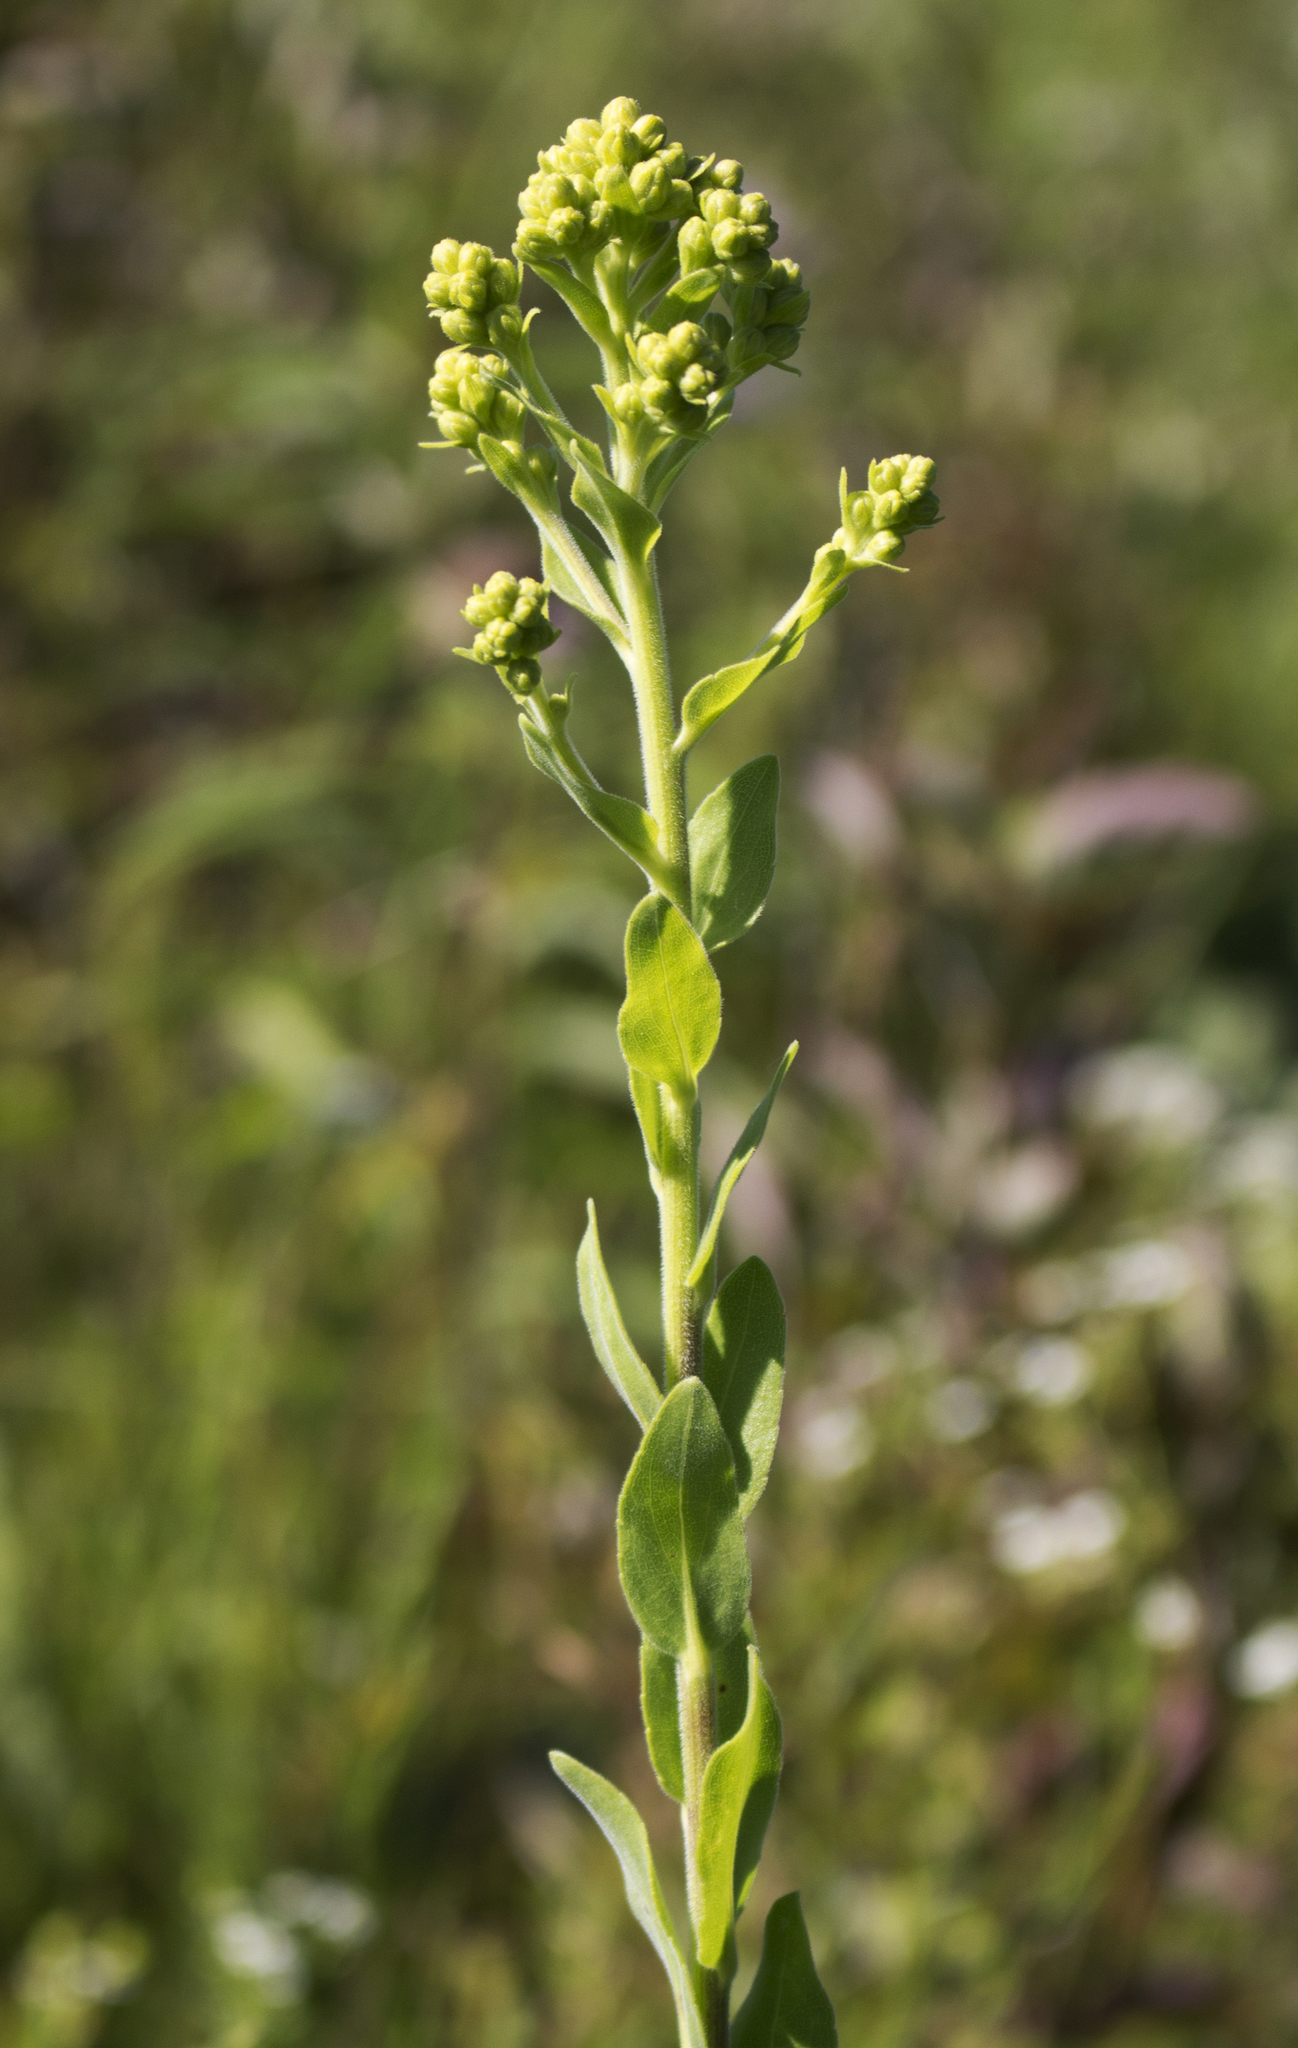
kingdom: Plantae
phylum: Tracheophyta
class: Magnoliopsida
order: Asterales
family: Asteraceae
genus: Solidago
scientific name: Solidago rigida
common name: Rigid goldenrod
